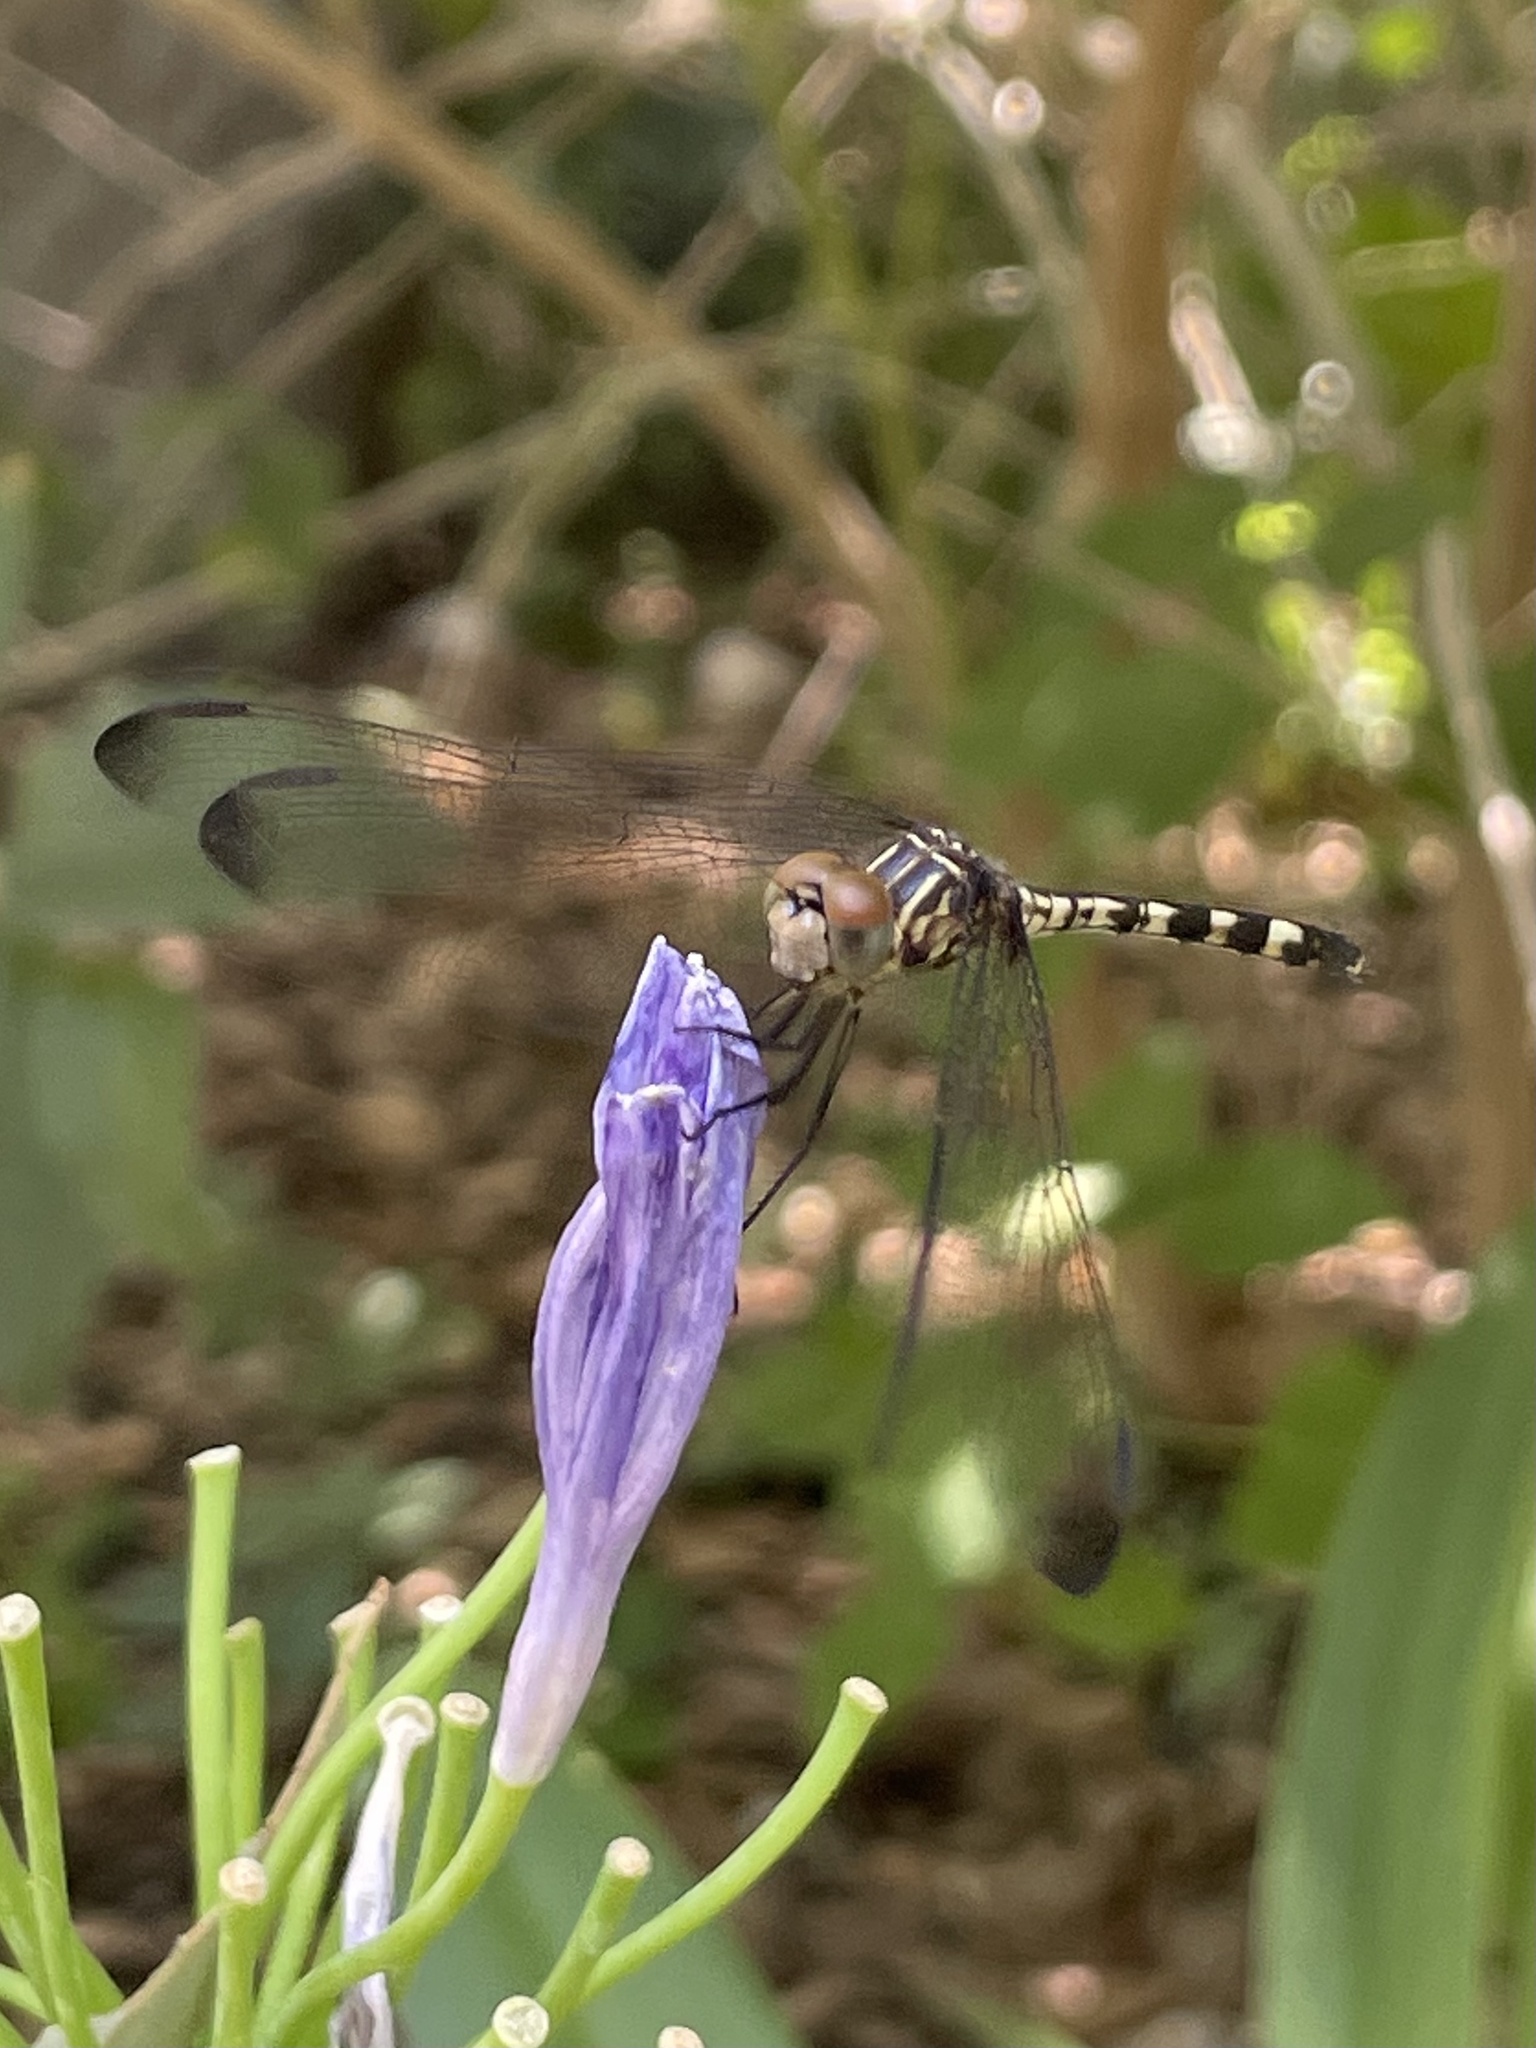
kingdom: Animalia
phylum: Arthropoda
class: Insecta
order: Odonata
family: Libellulidae
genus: Dythemis
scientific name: Dythemis nigrescens
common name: Black setwing
